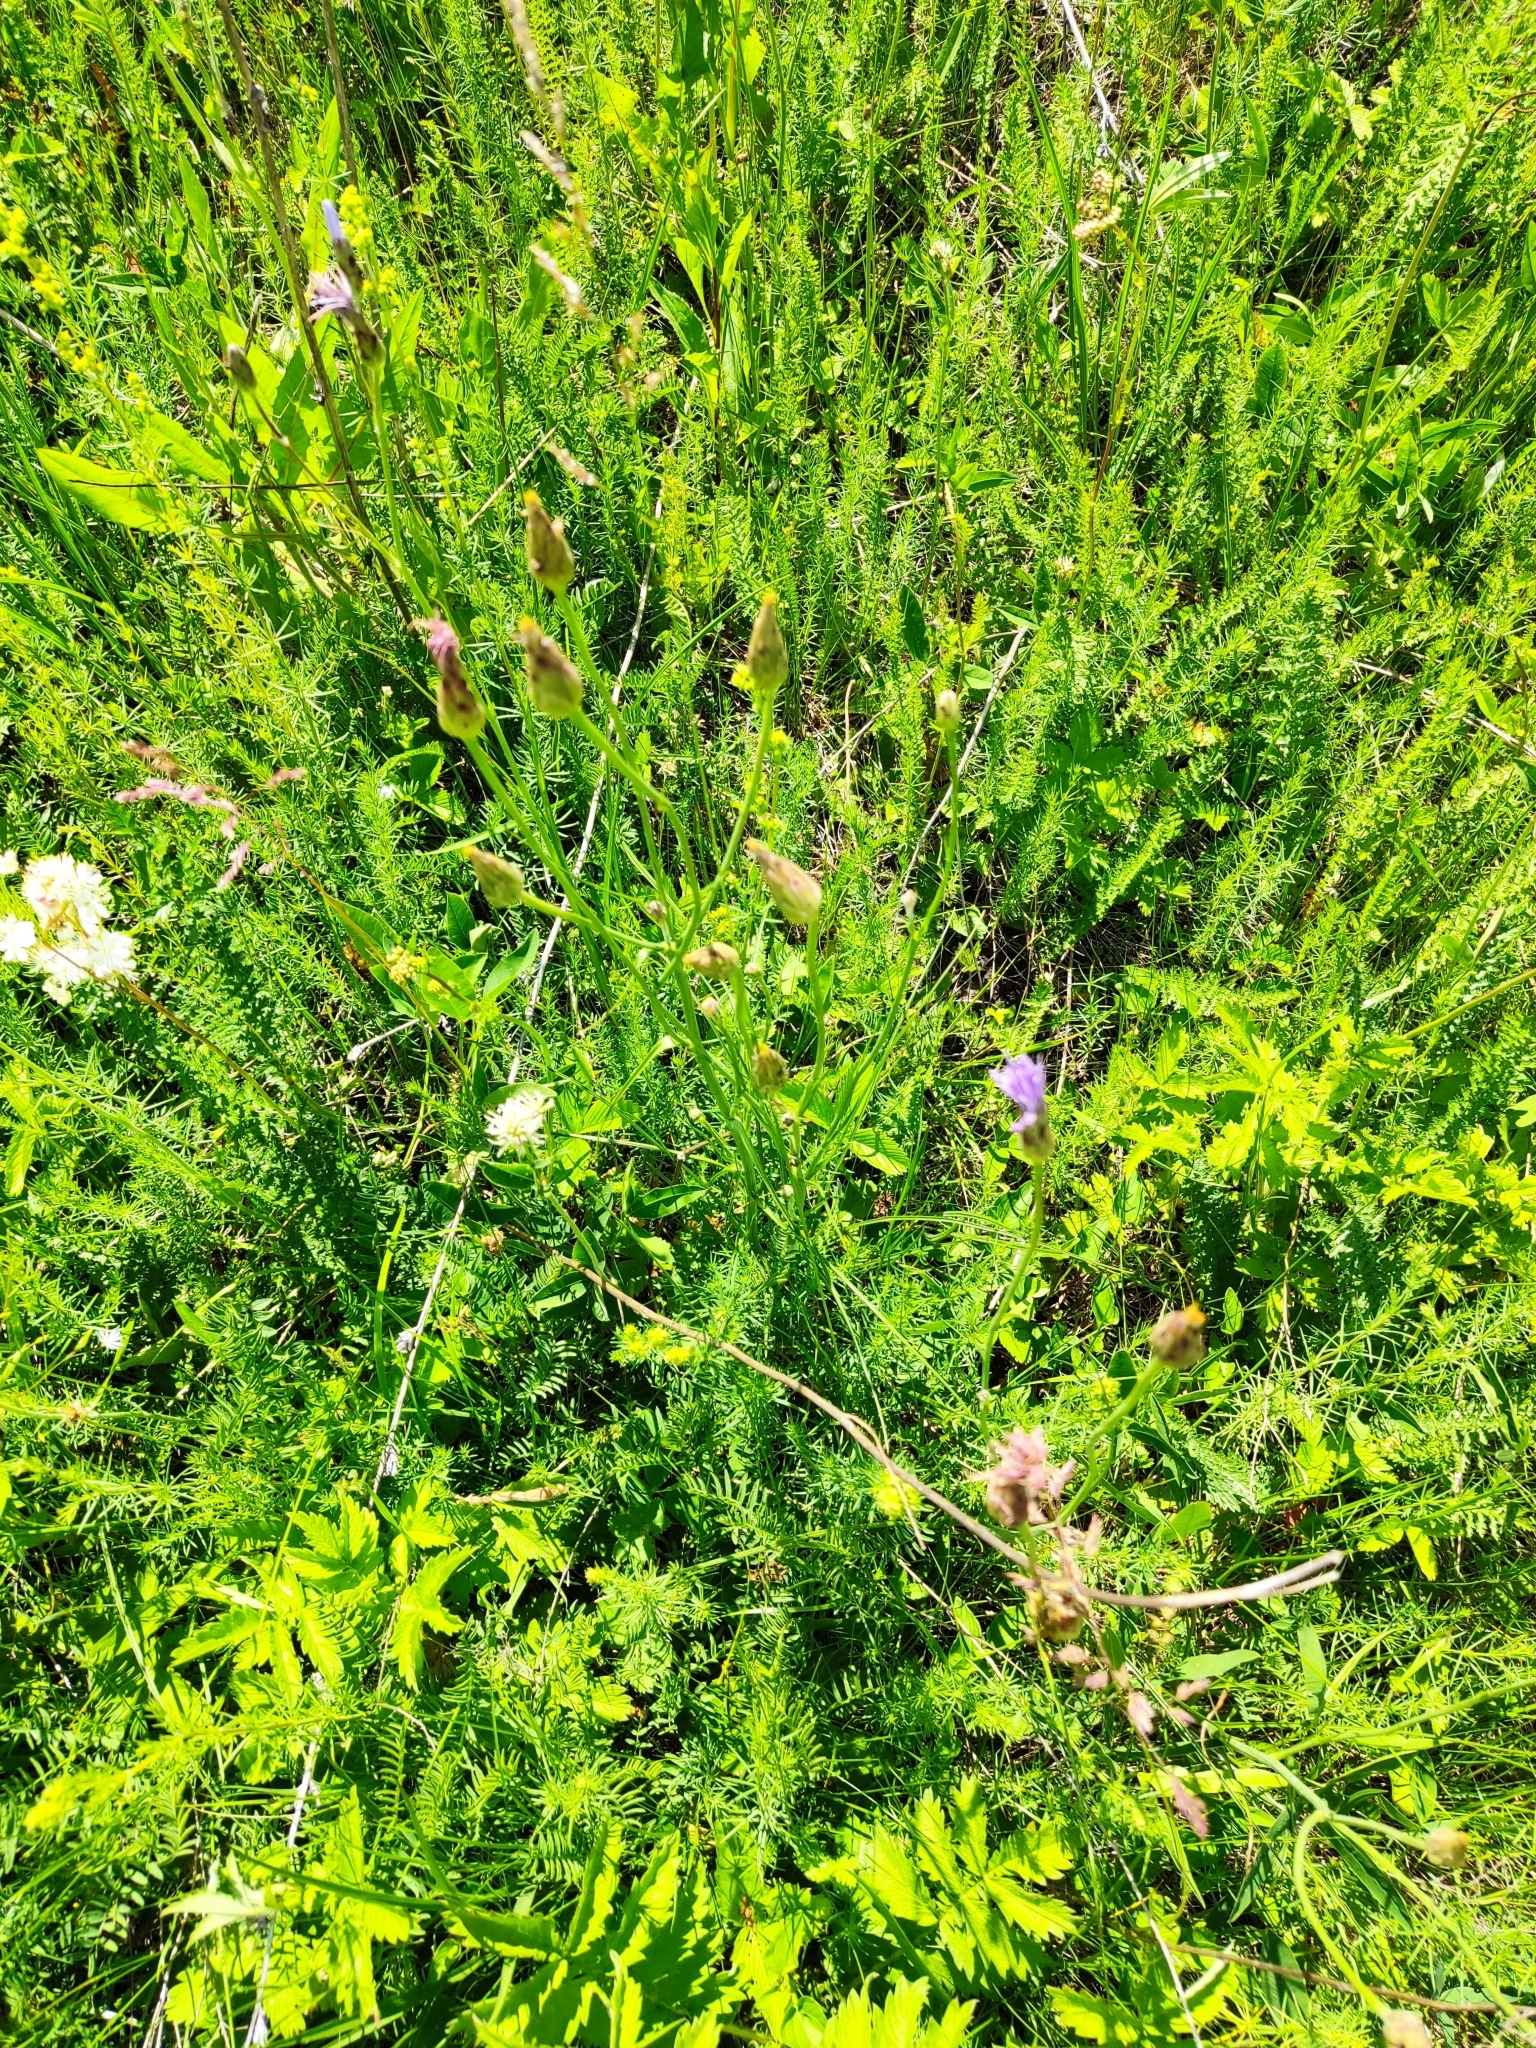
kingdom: Plantae
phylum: Tracheophyta
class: Magnoliopsida
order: Asterales
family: Asteraceae
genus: Scorzonera
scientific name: Scorzonera purpurea
